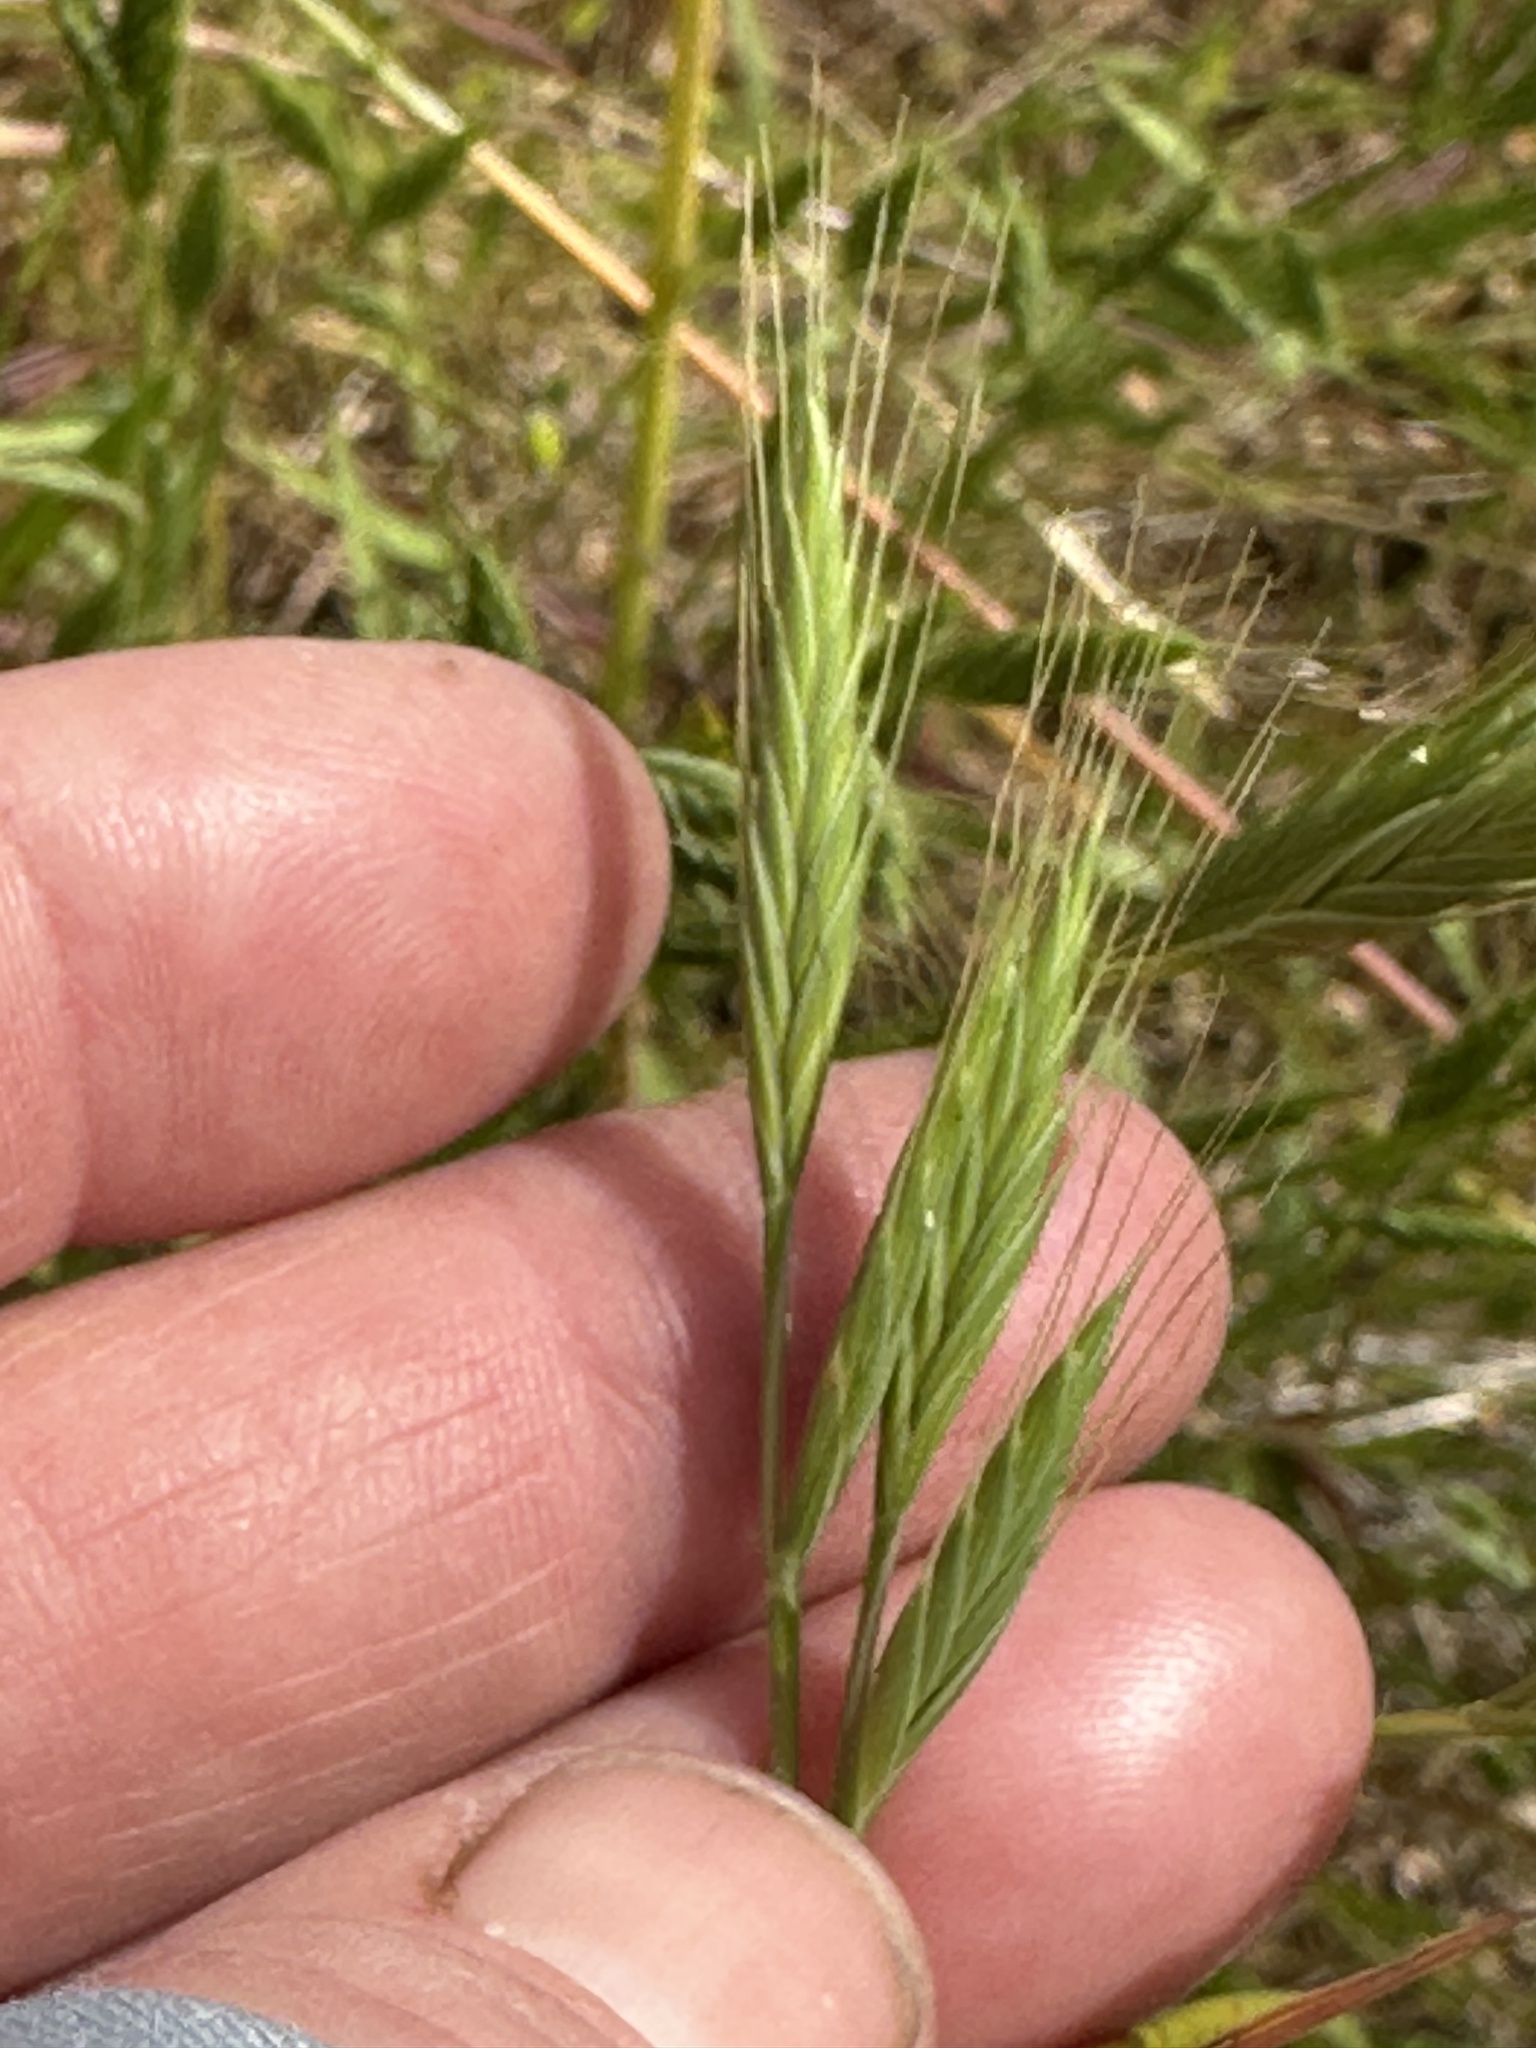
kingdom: Plantae
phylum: Tracheophyta
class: Liliopsida
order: Poales
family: Poaceae
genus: Brachypodium
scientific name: Brachypodium distachyon
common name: Stiff brome
